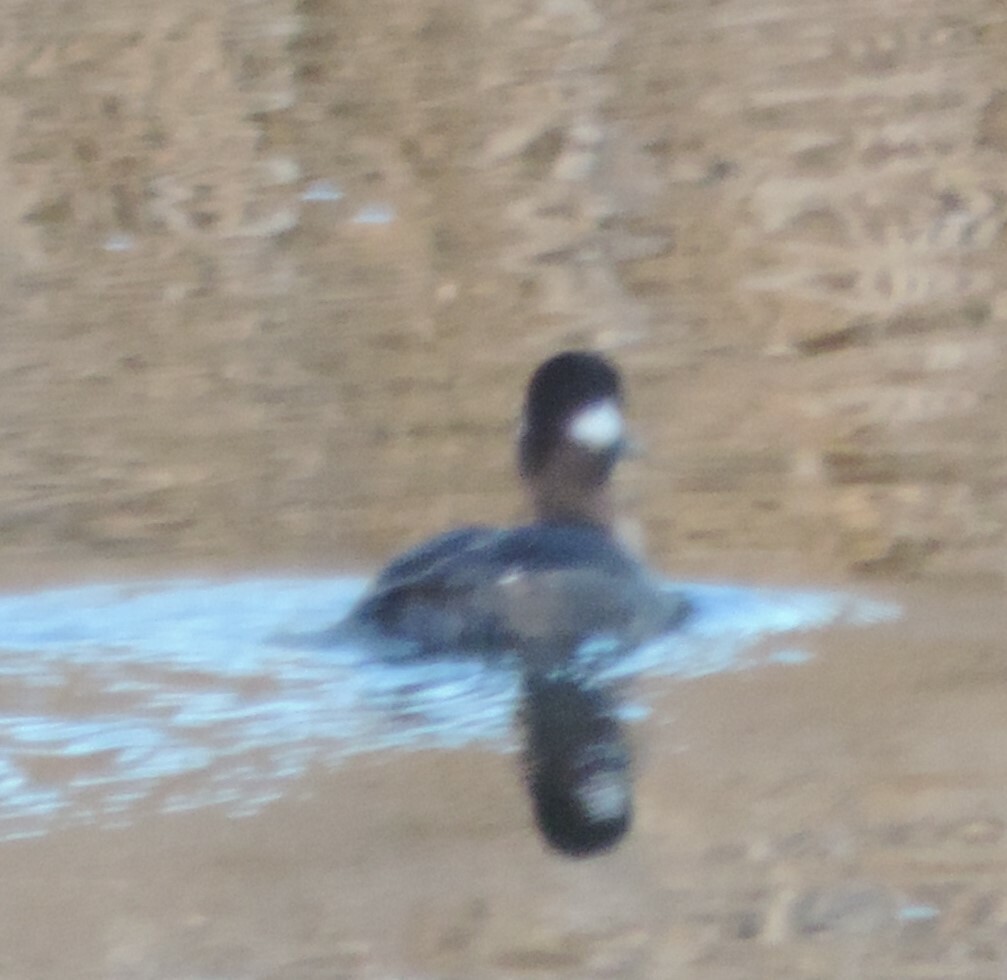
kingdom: Animalia
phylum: Chordata
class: Aves
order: Anseriformes
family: Anatidae
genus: Bucephala
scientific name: Bucephala albeola
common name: Bufflehead
